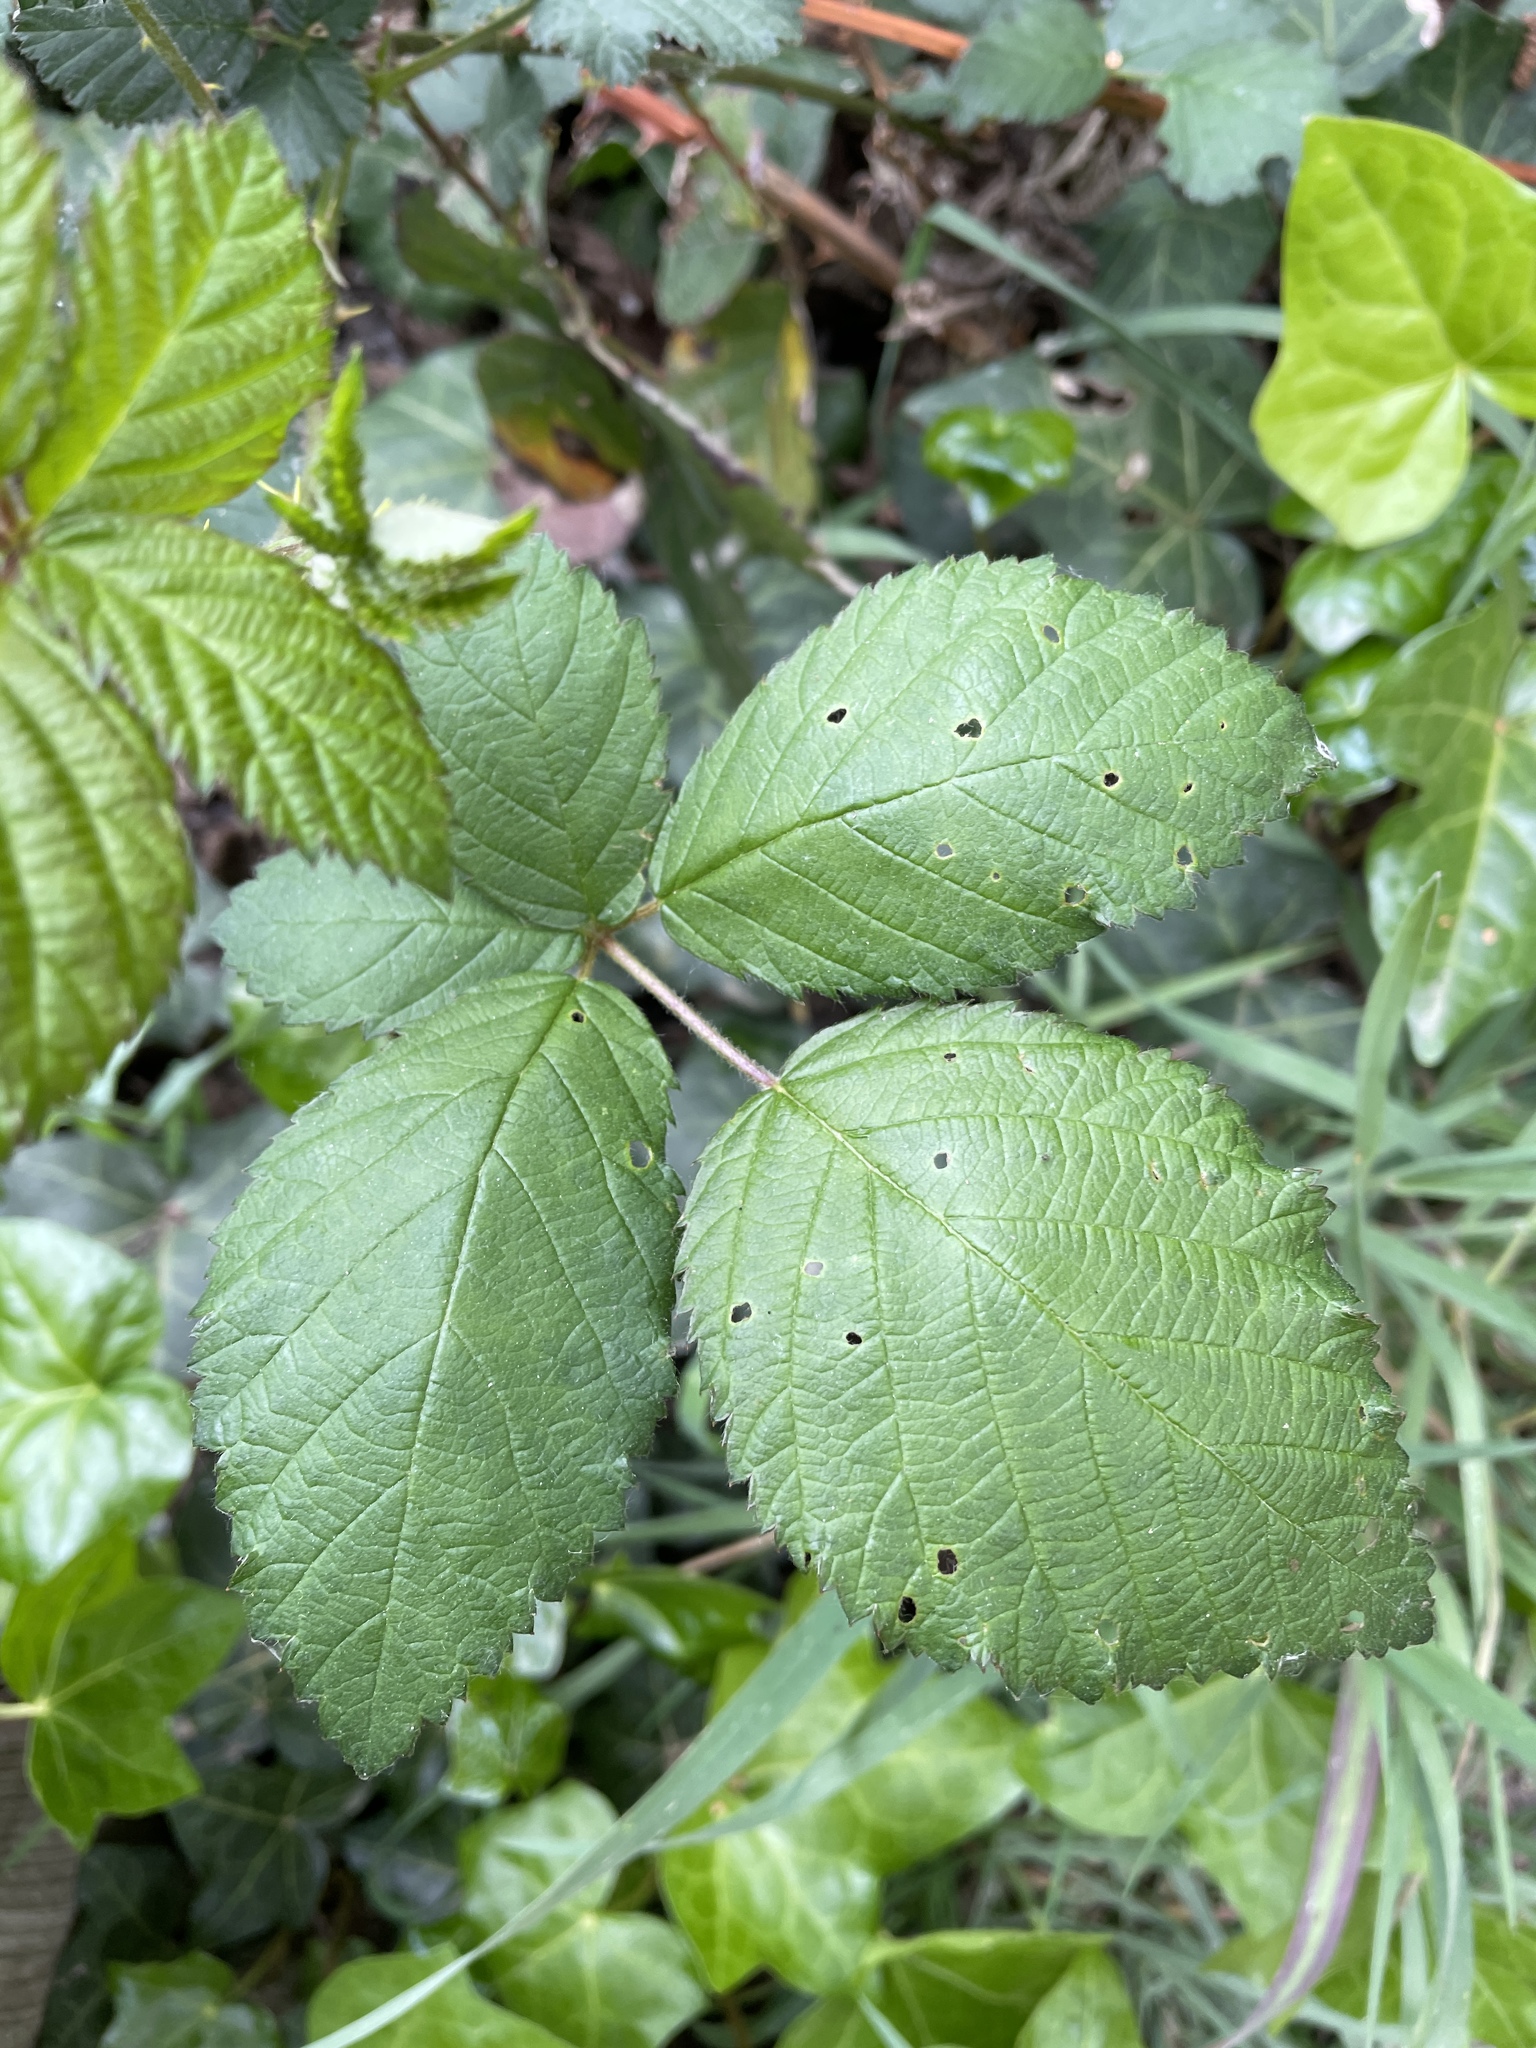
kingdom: Plantae
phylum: Tracheophyta
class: Magnoliopsida
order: Rosales
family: Rosaceae
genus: Rubus
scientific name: Rubus armeniacus
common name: Himalayan blackberry
